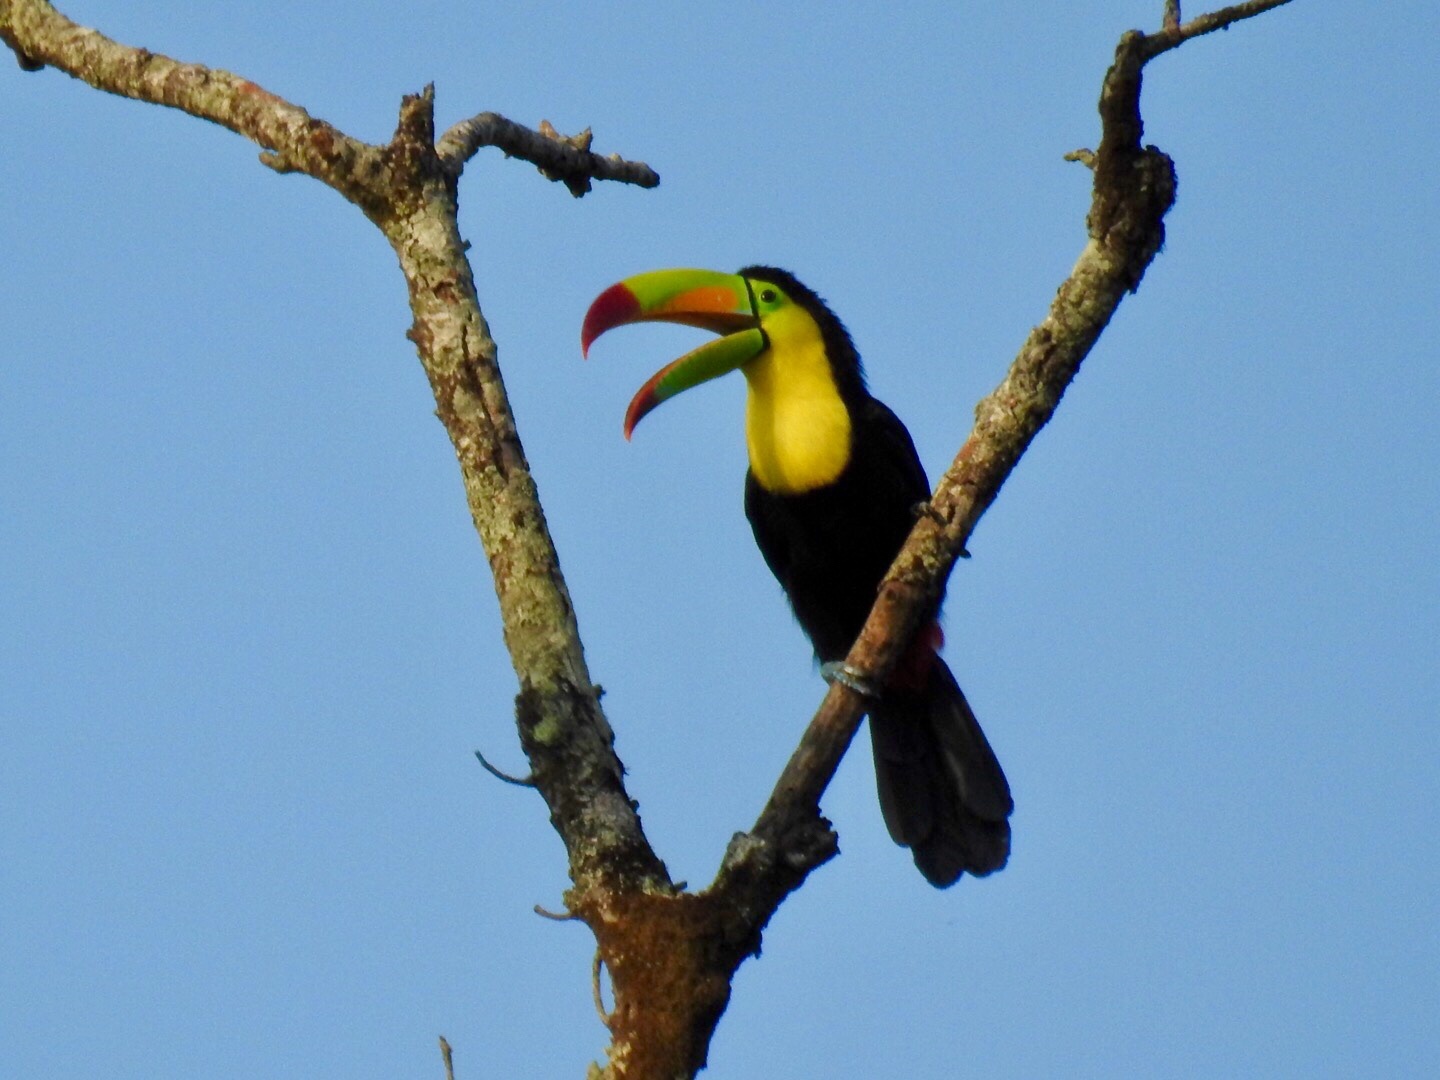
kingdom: Animalia
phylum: Chordata
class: Aves
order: Piciformes
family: Ramphastidae
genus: Ramphastos
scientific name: Ramphastos sulfuratus
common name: Keel-billed toucan
